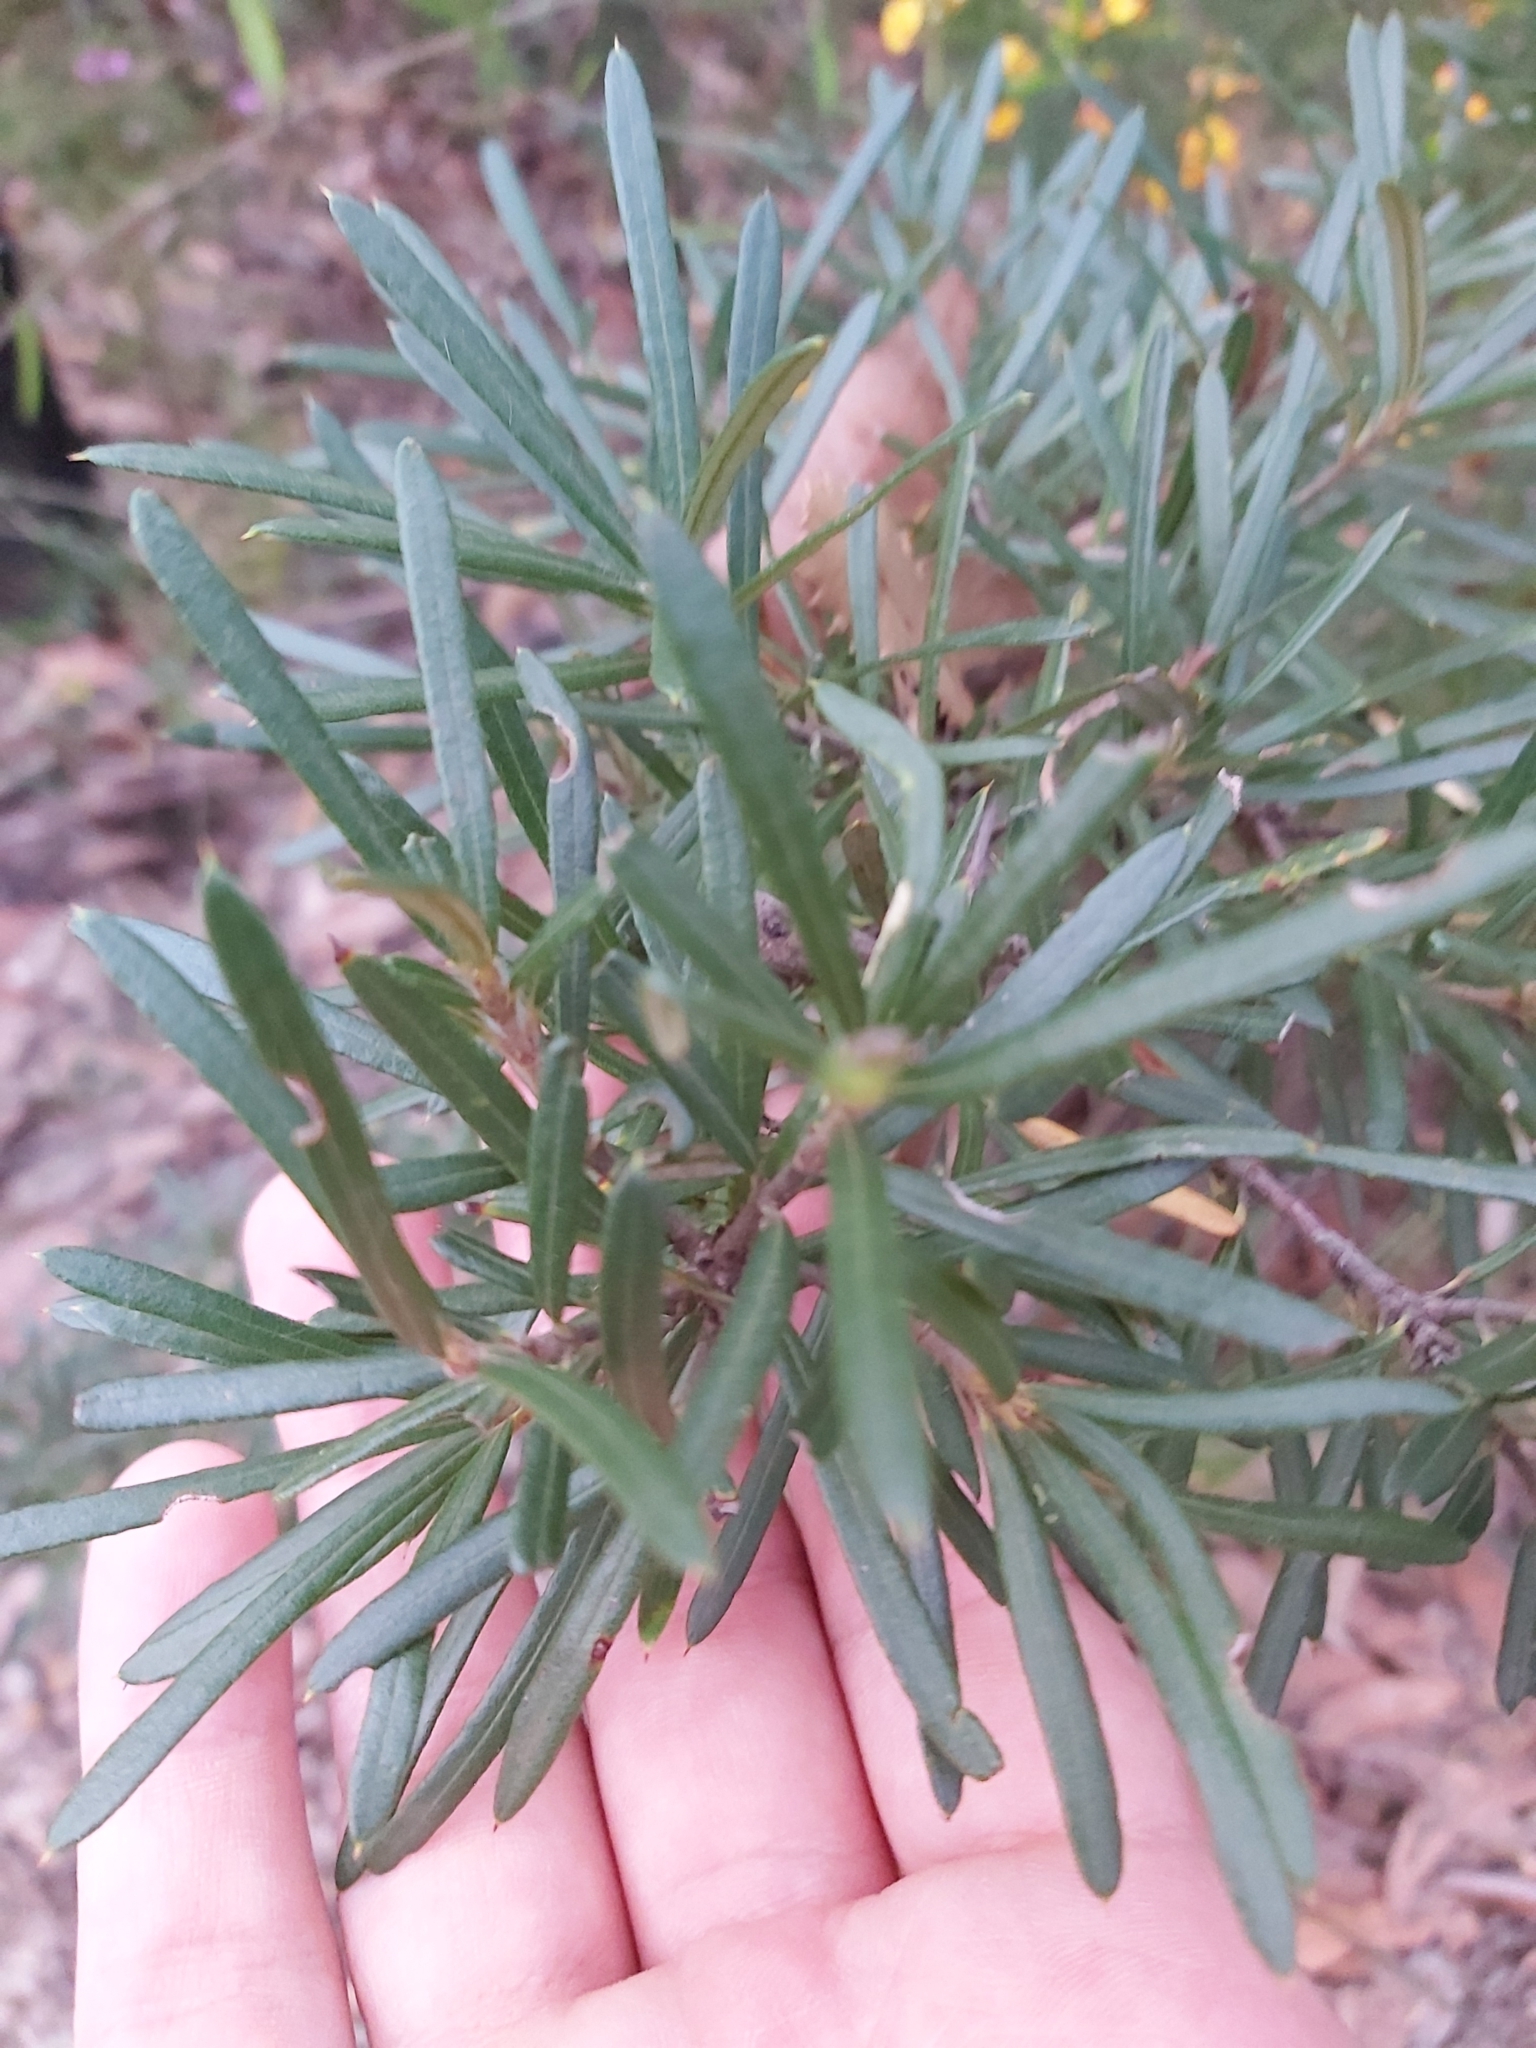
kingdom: Plantae
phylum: Tracheophyta
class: Magnoliopsida
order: Proteales
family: Proteaceae
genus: Lambertia
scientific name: Lambertia formosa
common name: Mountain-devil
